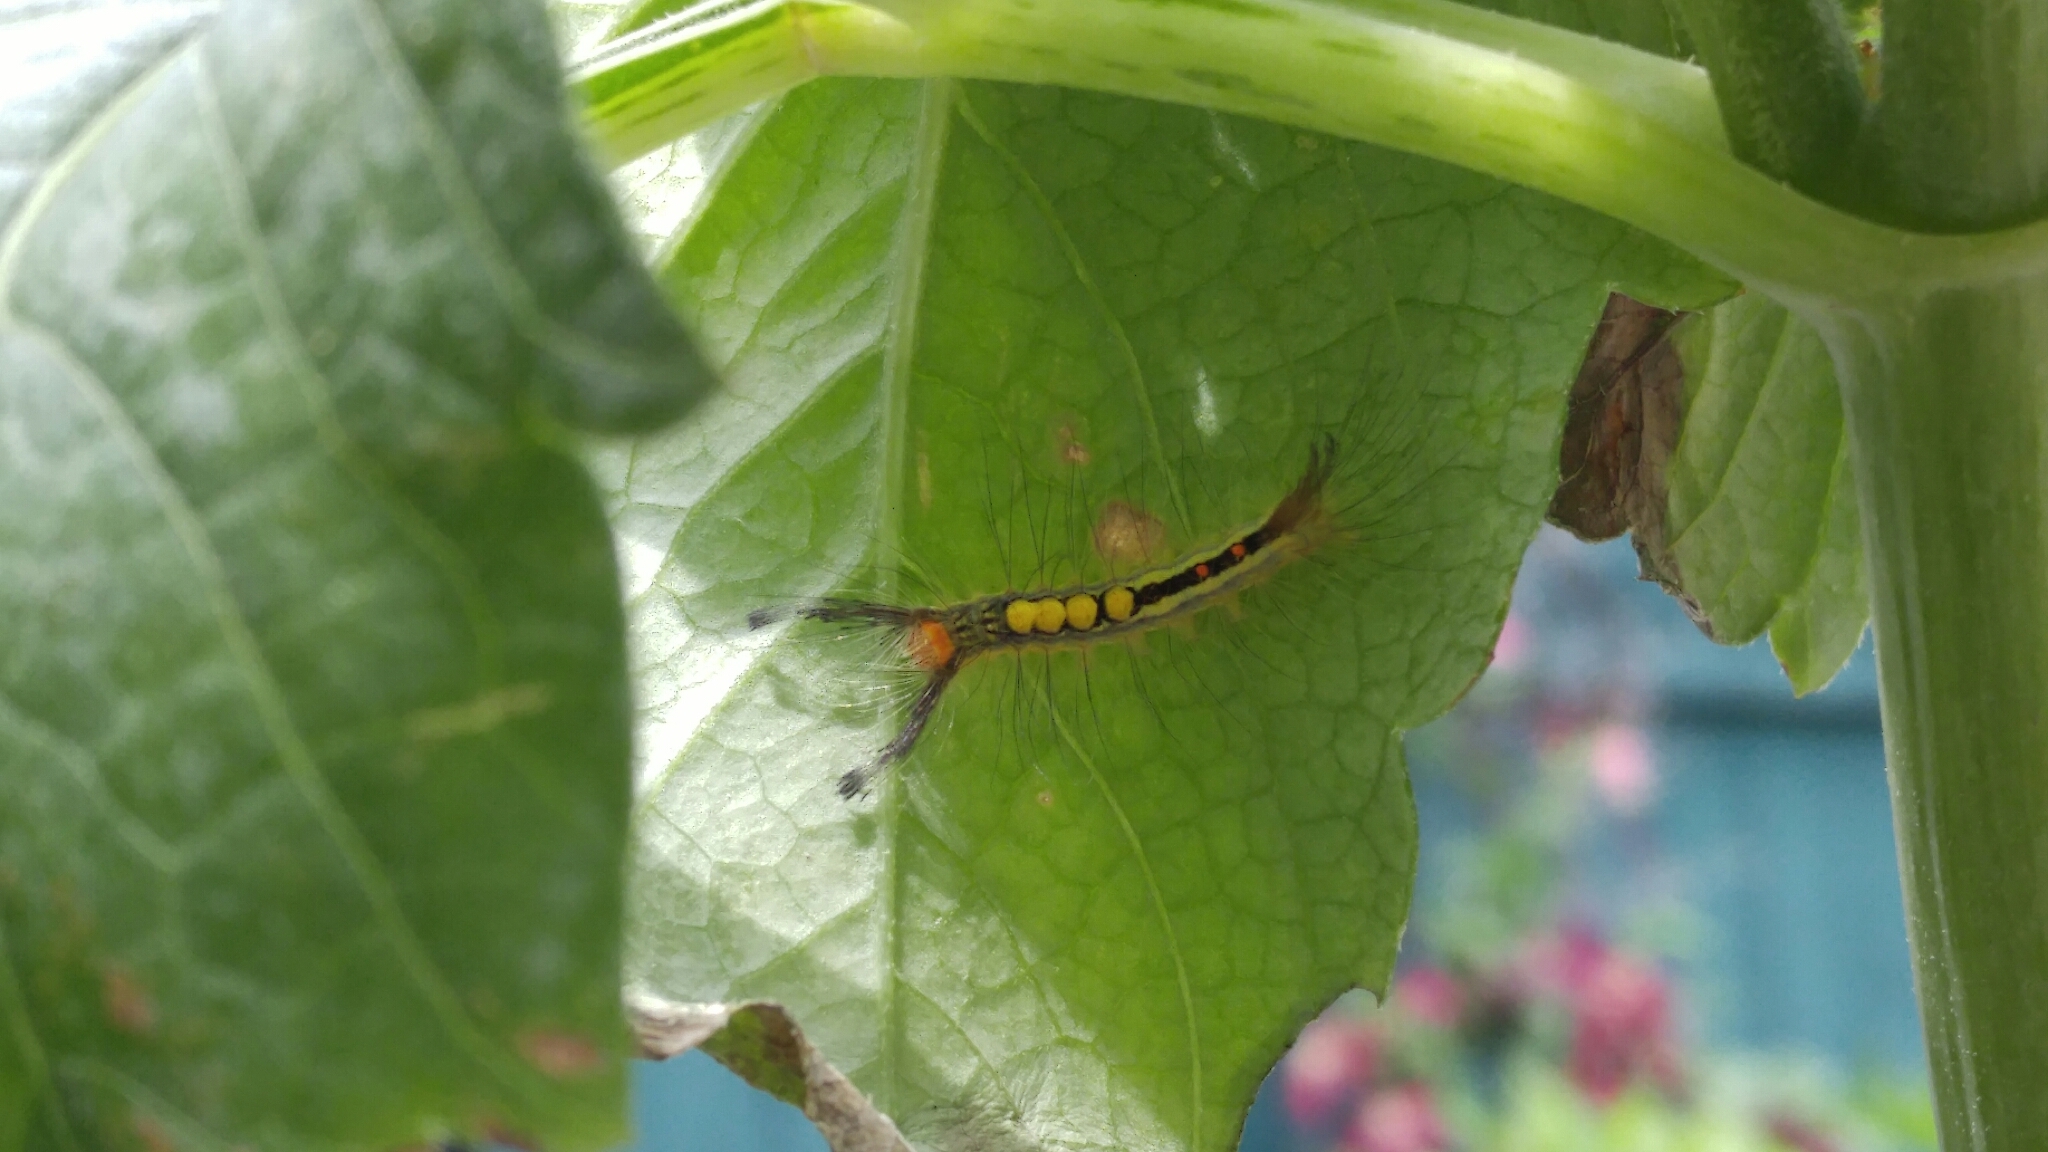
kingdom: Animalia
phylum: Arthropoda
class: Insecta
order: Lepidoptera
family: Erebidae
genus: Orgyia
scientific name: Orgyia leucostigma
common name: White-marked tussock moth
